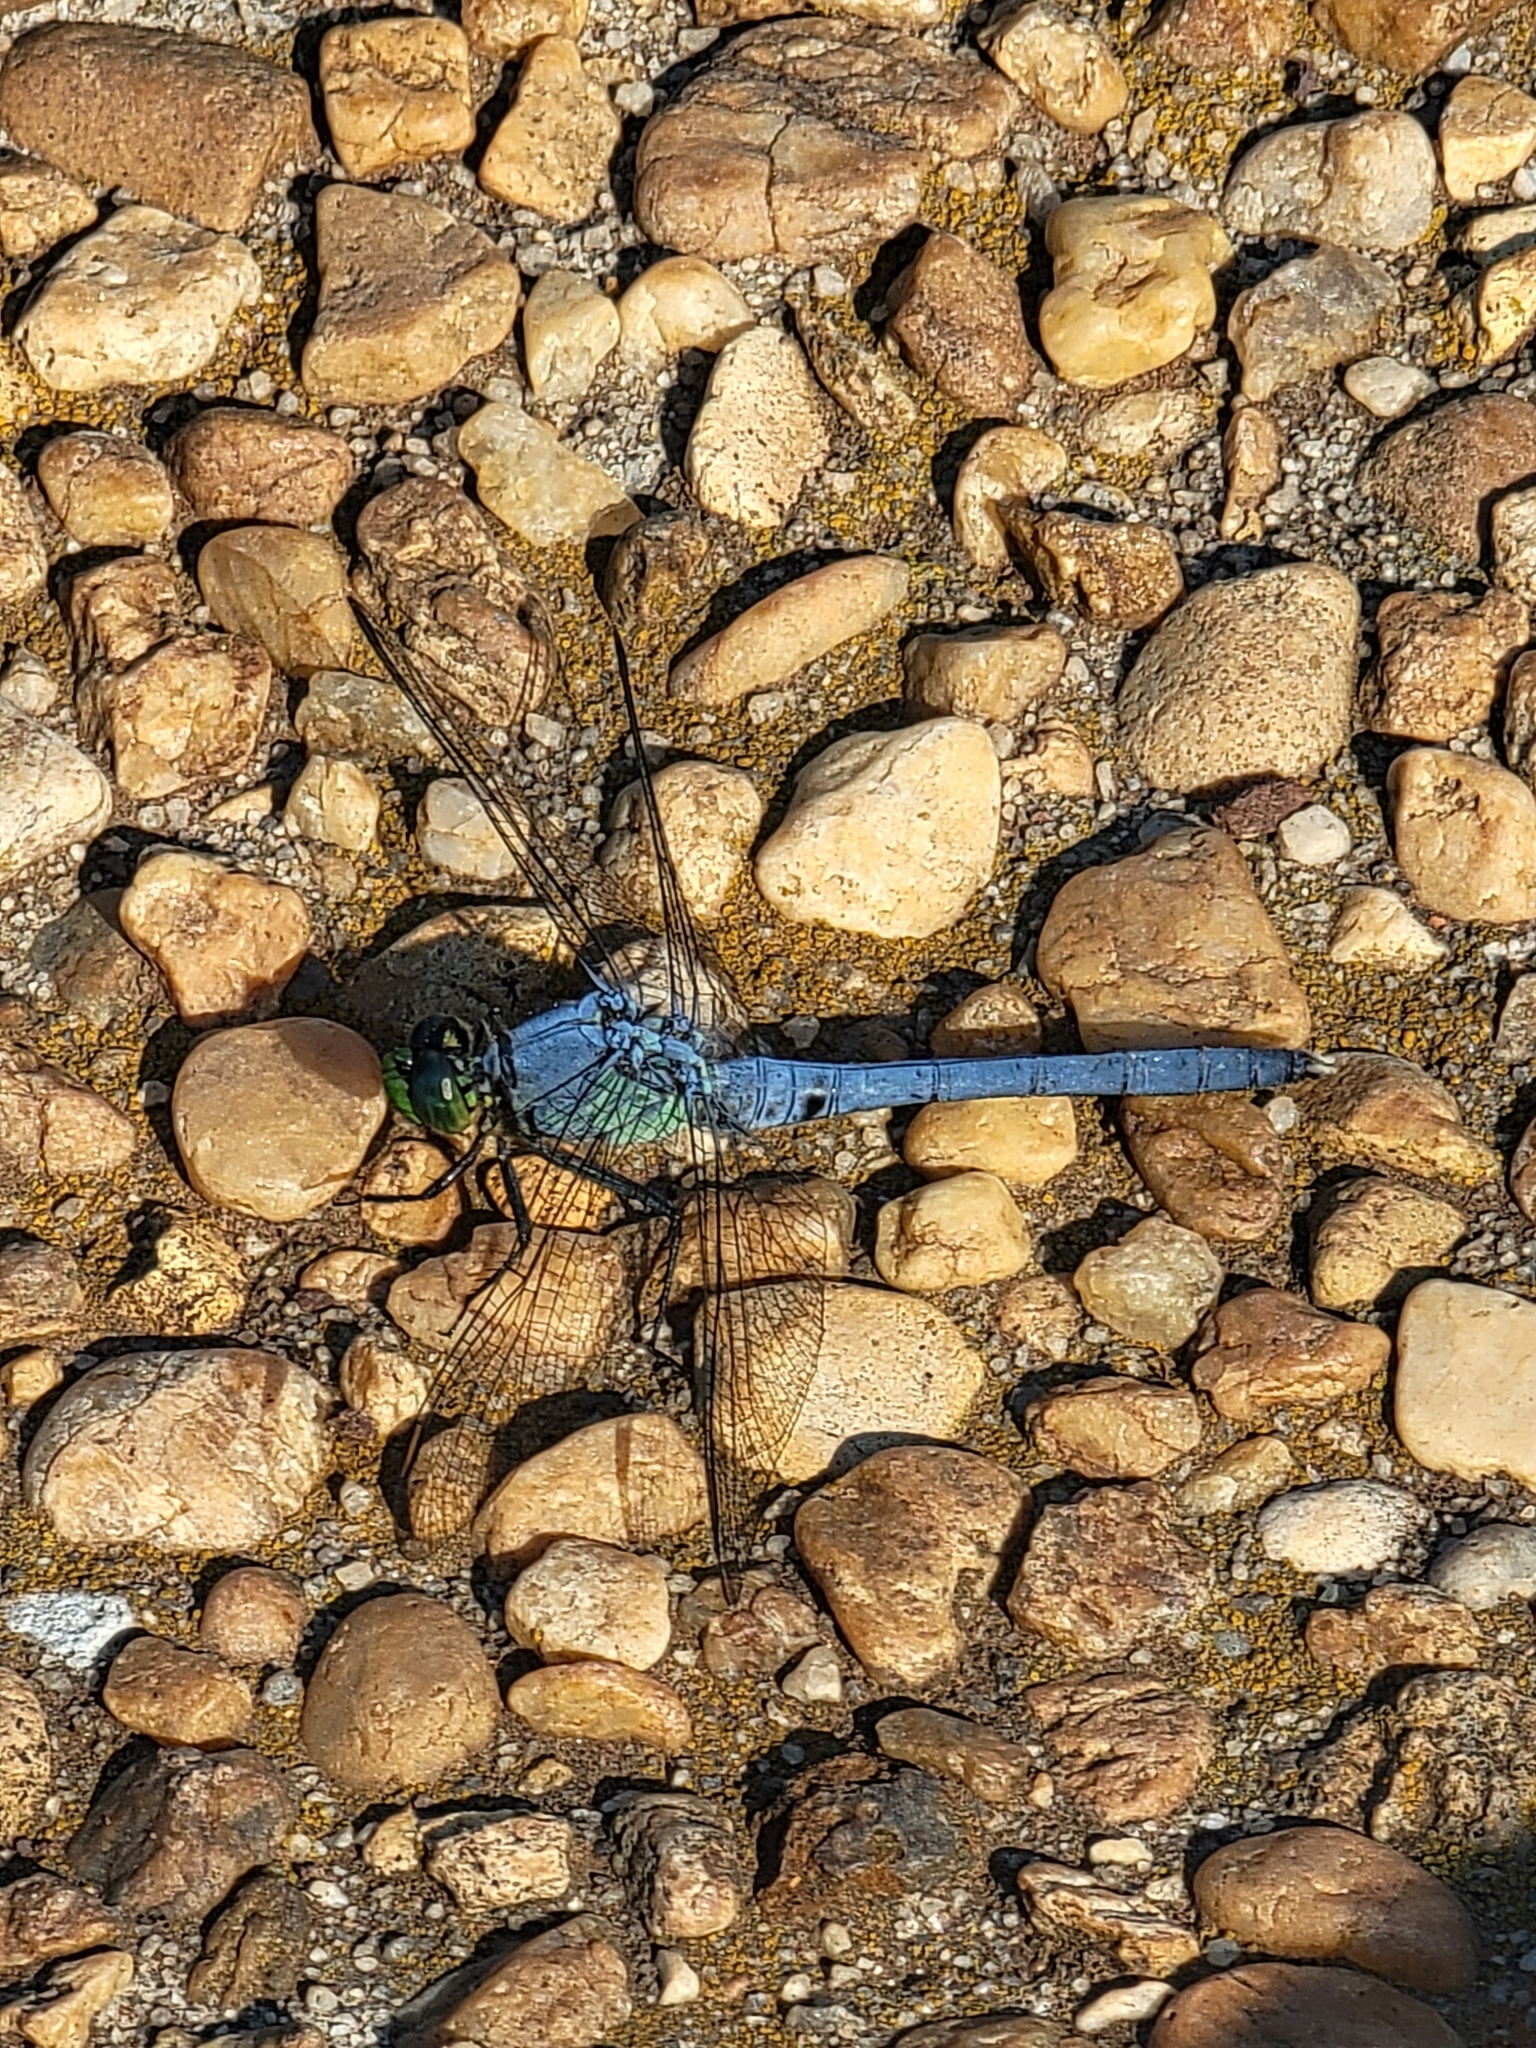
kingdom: Animalia
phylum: Arthropoda
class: Insecta
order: Odonata
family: Libellulidae
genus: Erythemis
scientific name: Erythemis simplicicollis
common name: Eastern pondhawk
